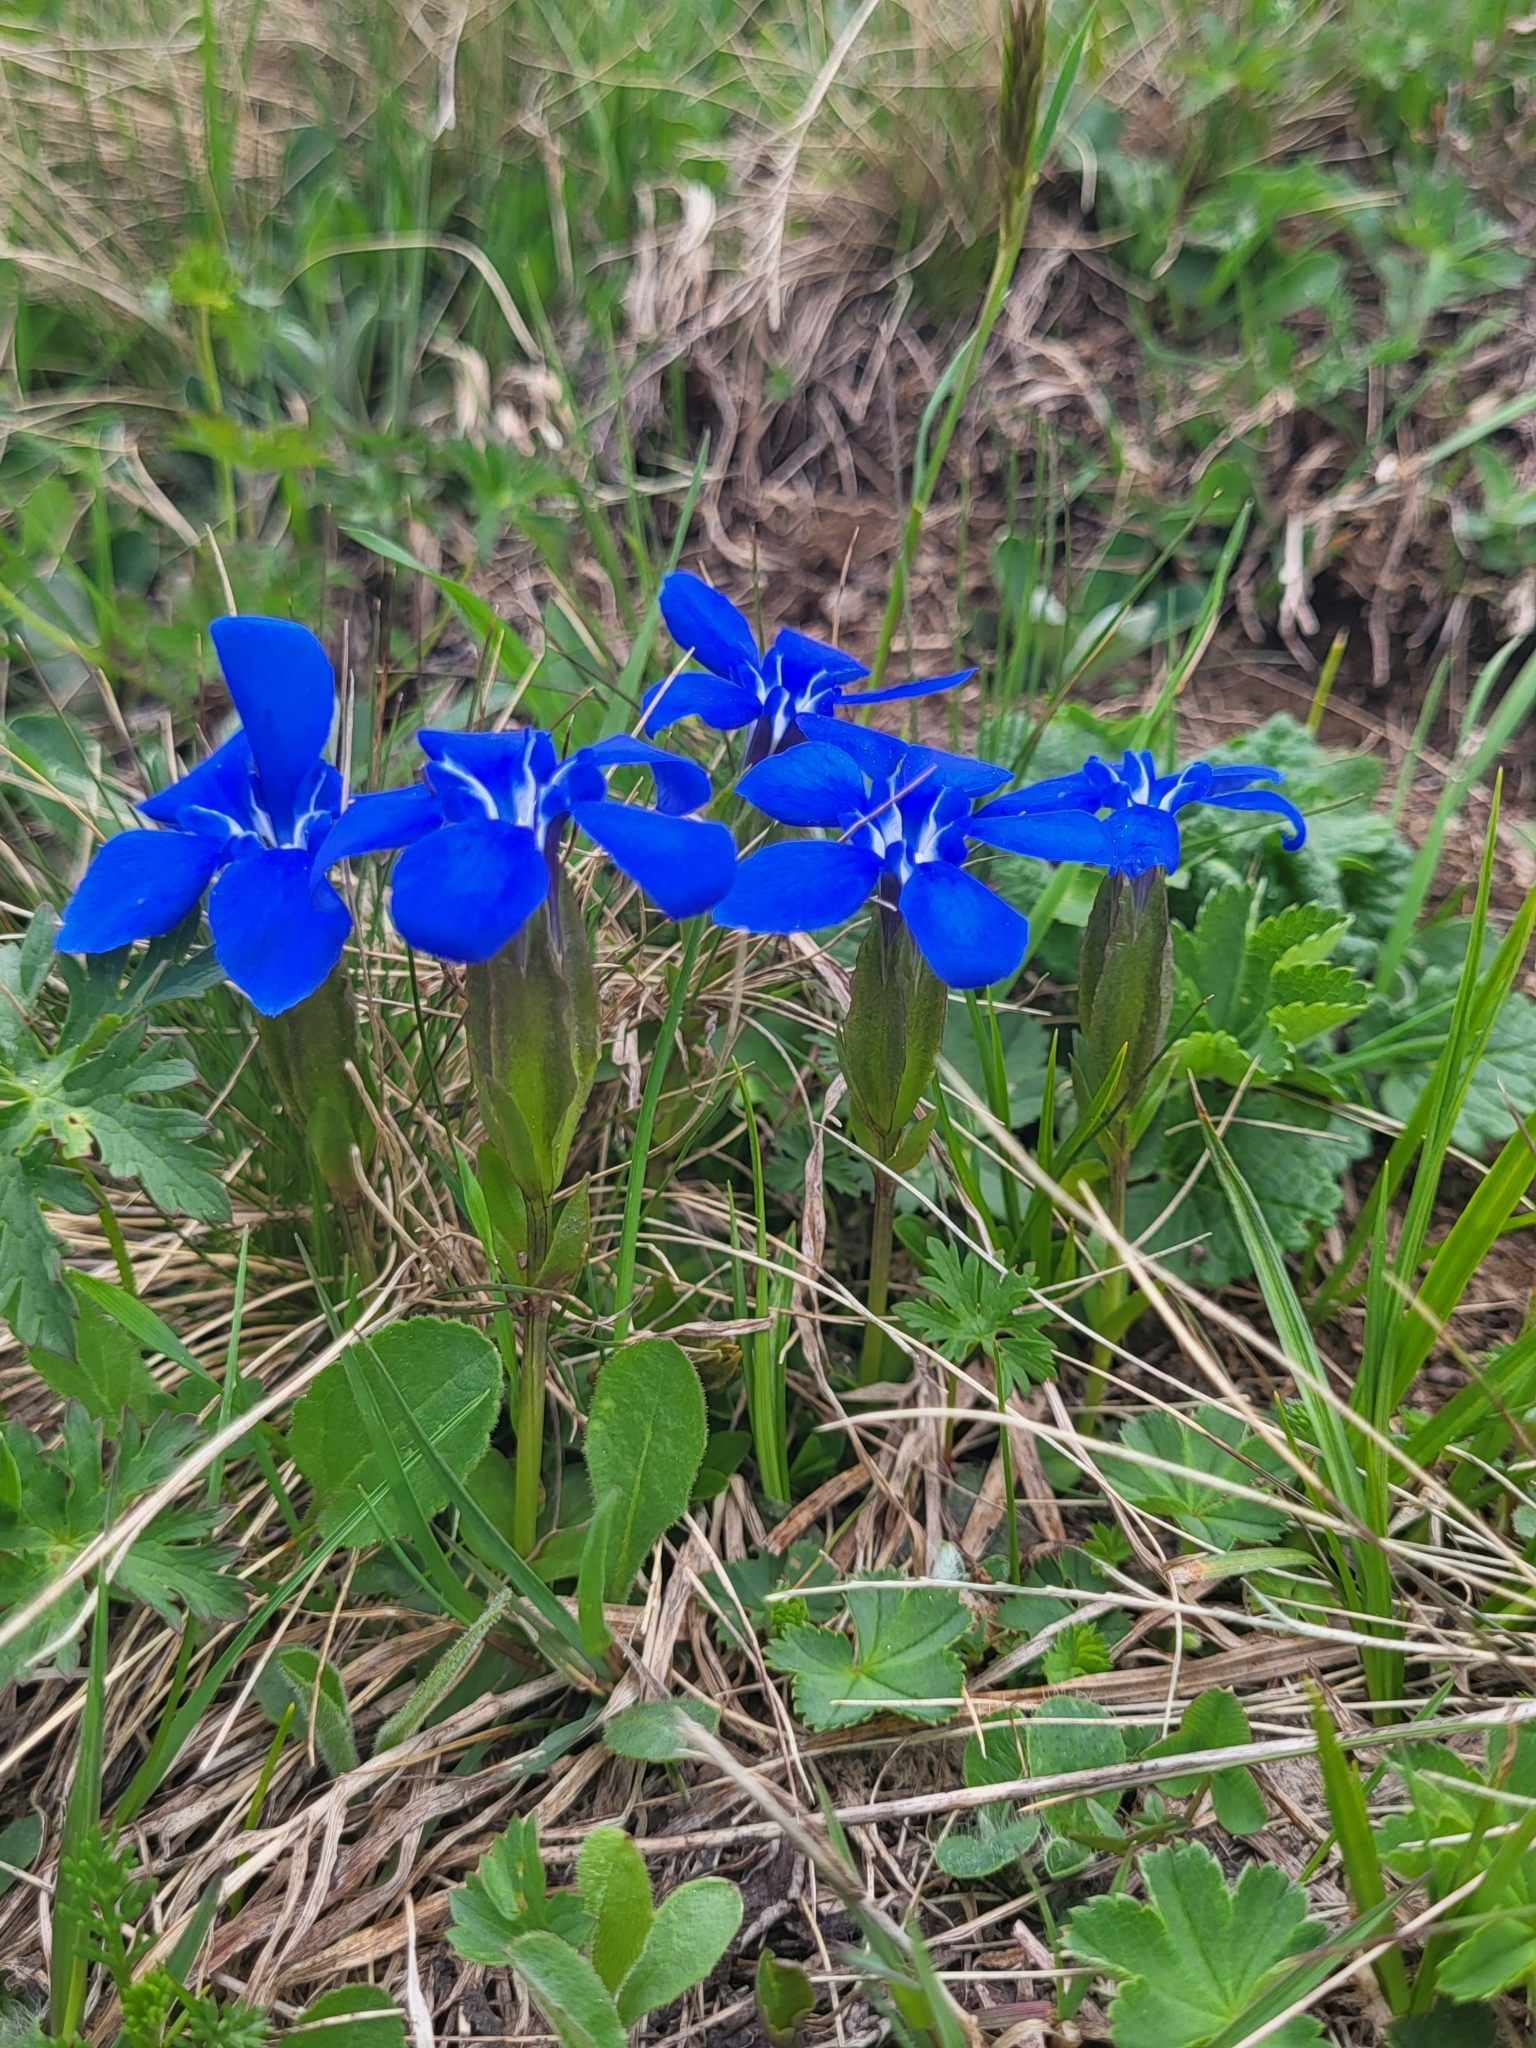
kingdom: Plantae
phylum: Tracheophyta
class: Magnoliopsida
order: Gentianales
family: Gentianaceae
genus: Gentiana
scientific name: Gentiana verna
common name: Spring gentian
